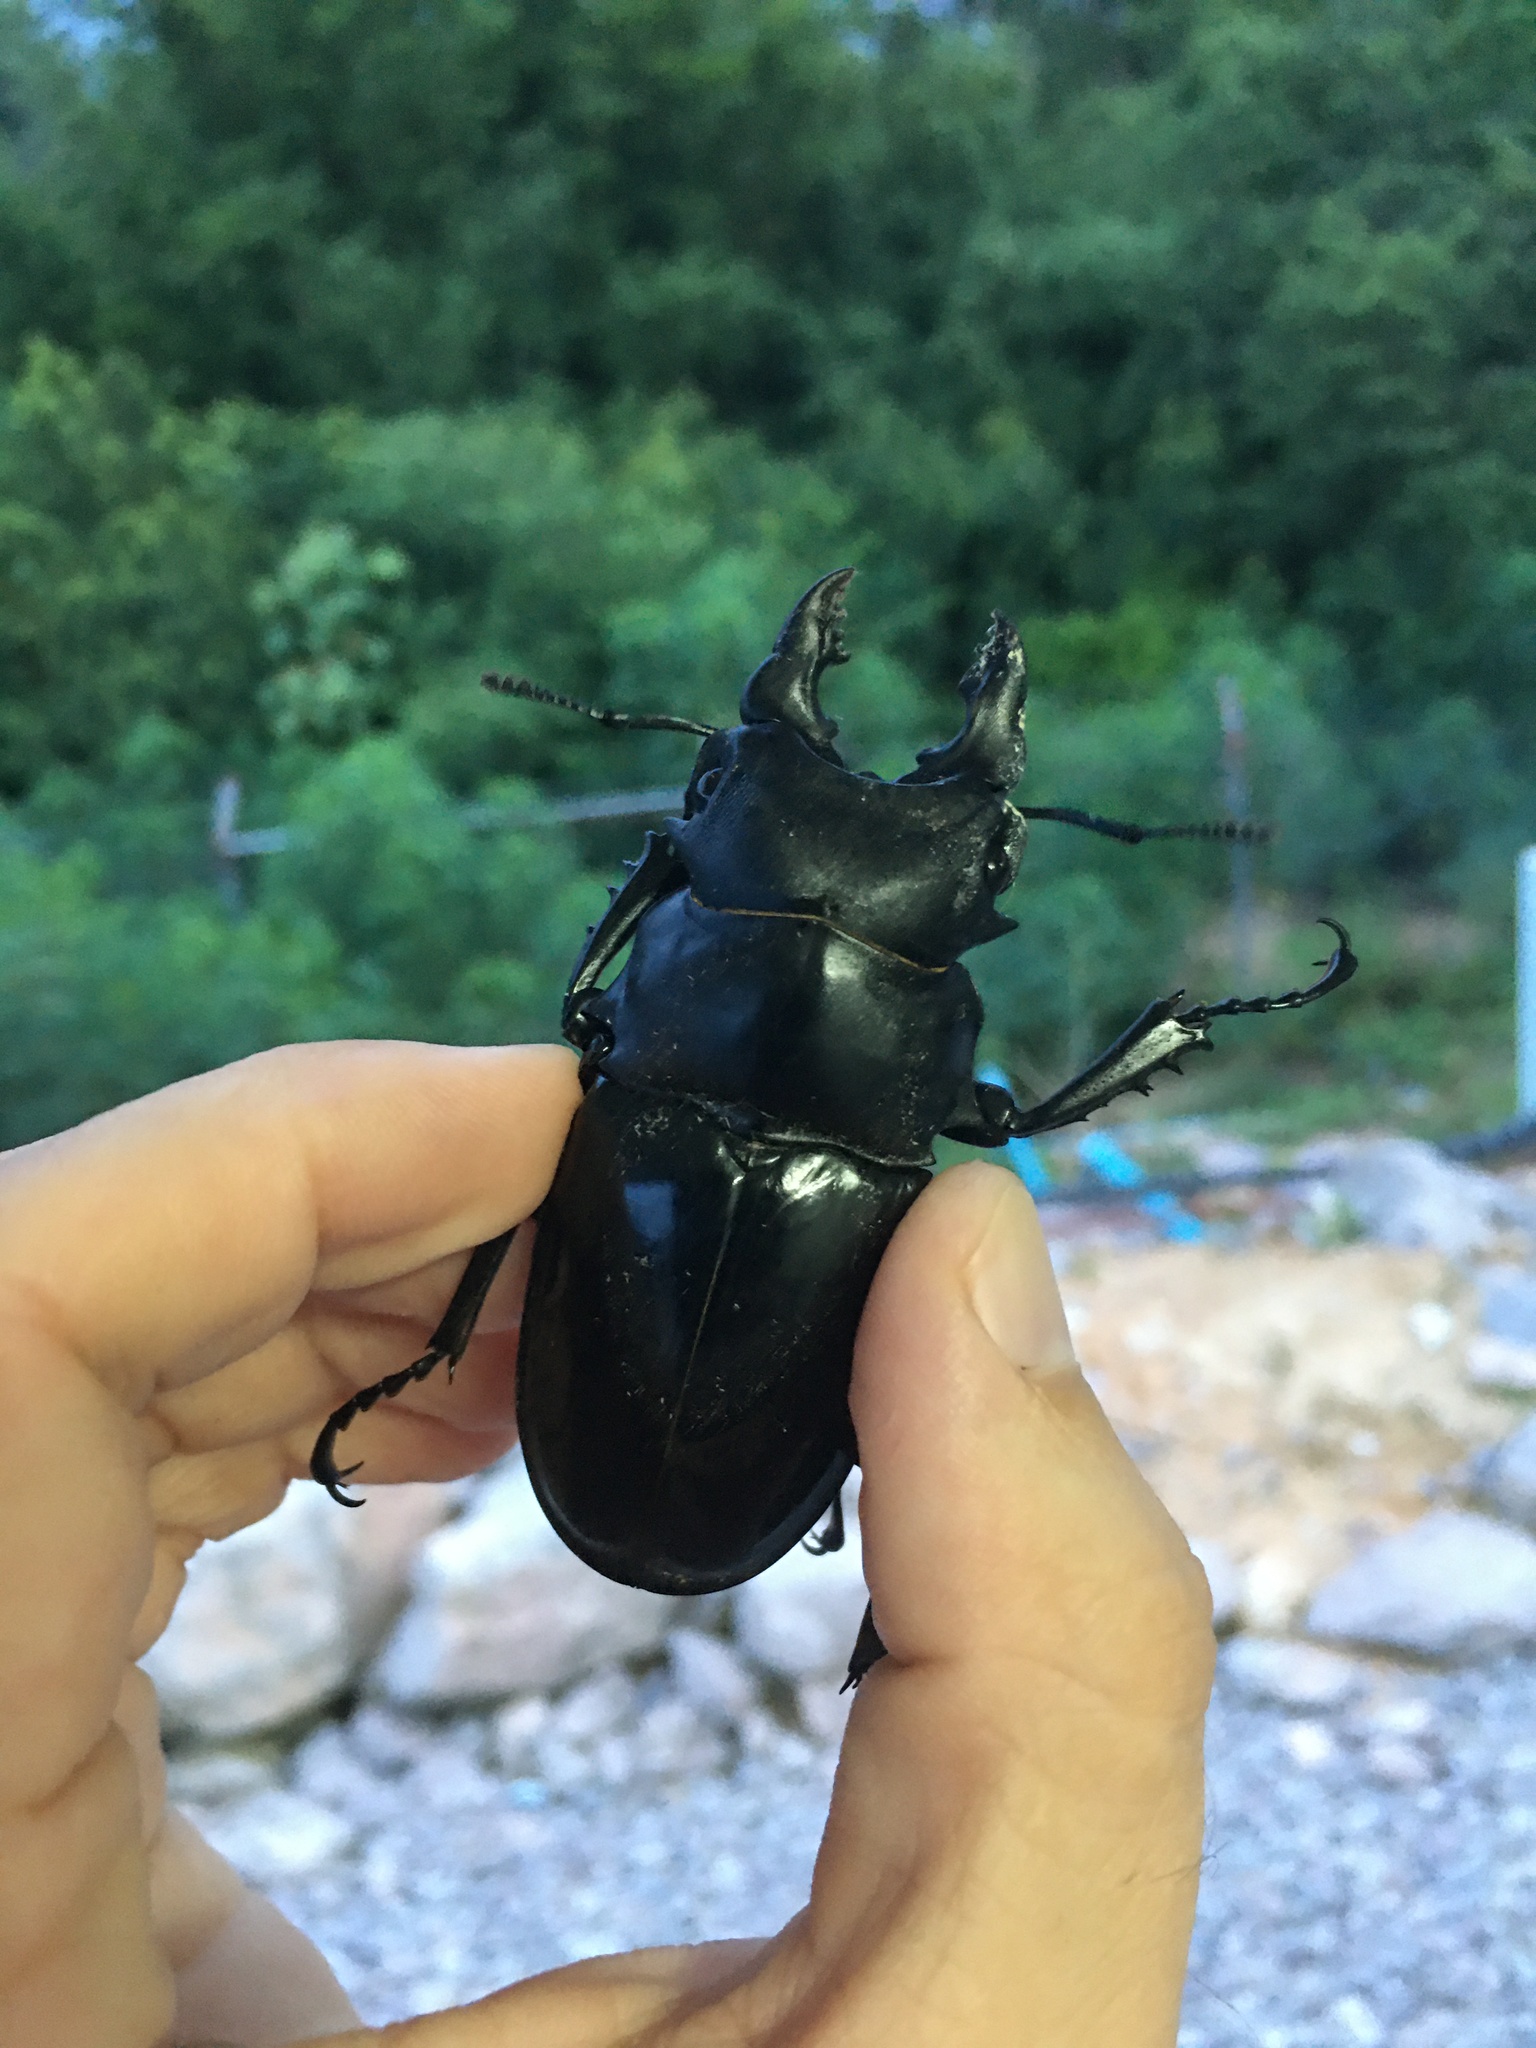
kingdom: Animalia
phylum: Arthropoda
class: Insecta
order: Coleoptera
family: Lucanidae
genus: Odontolabis
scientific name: Odontolabis siva
